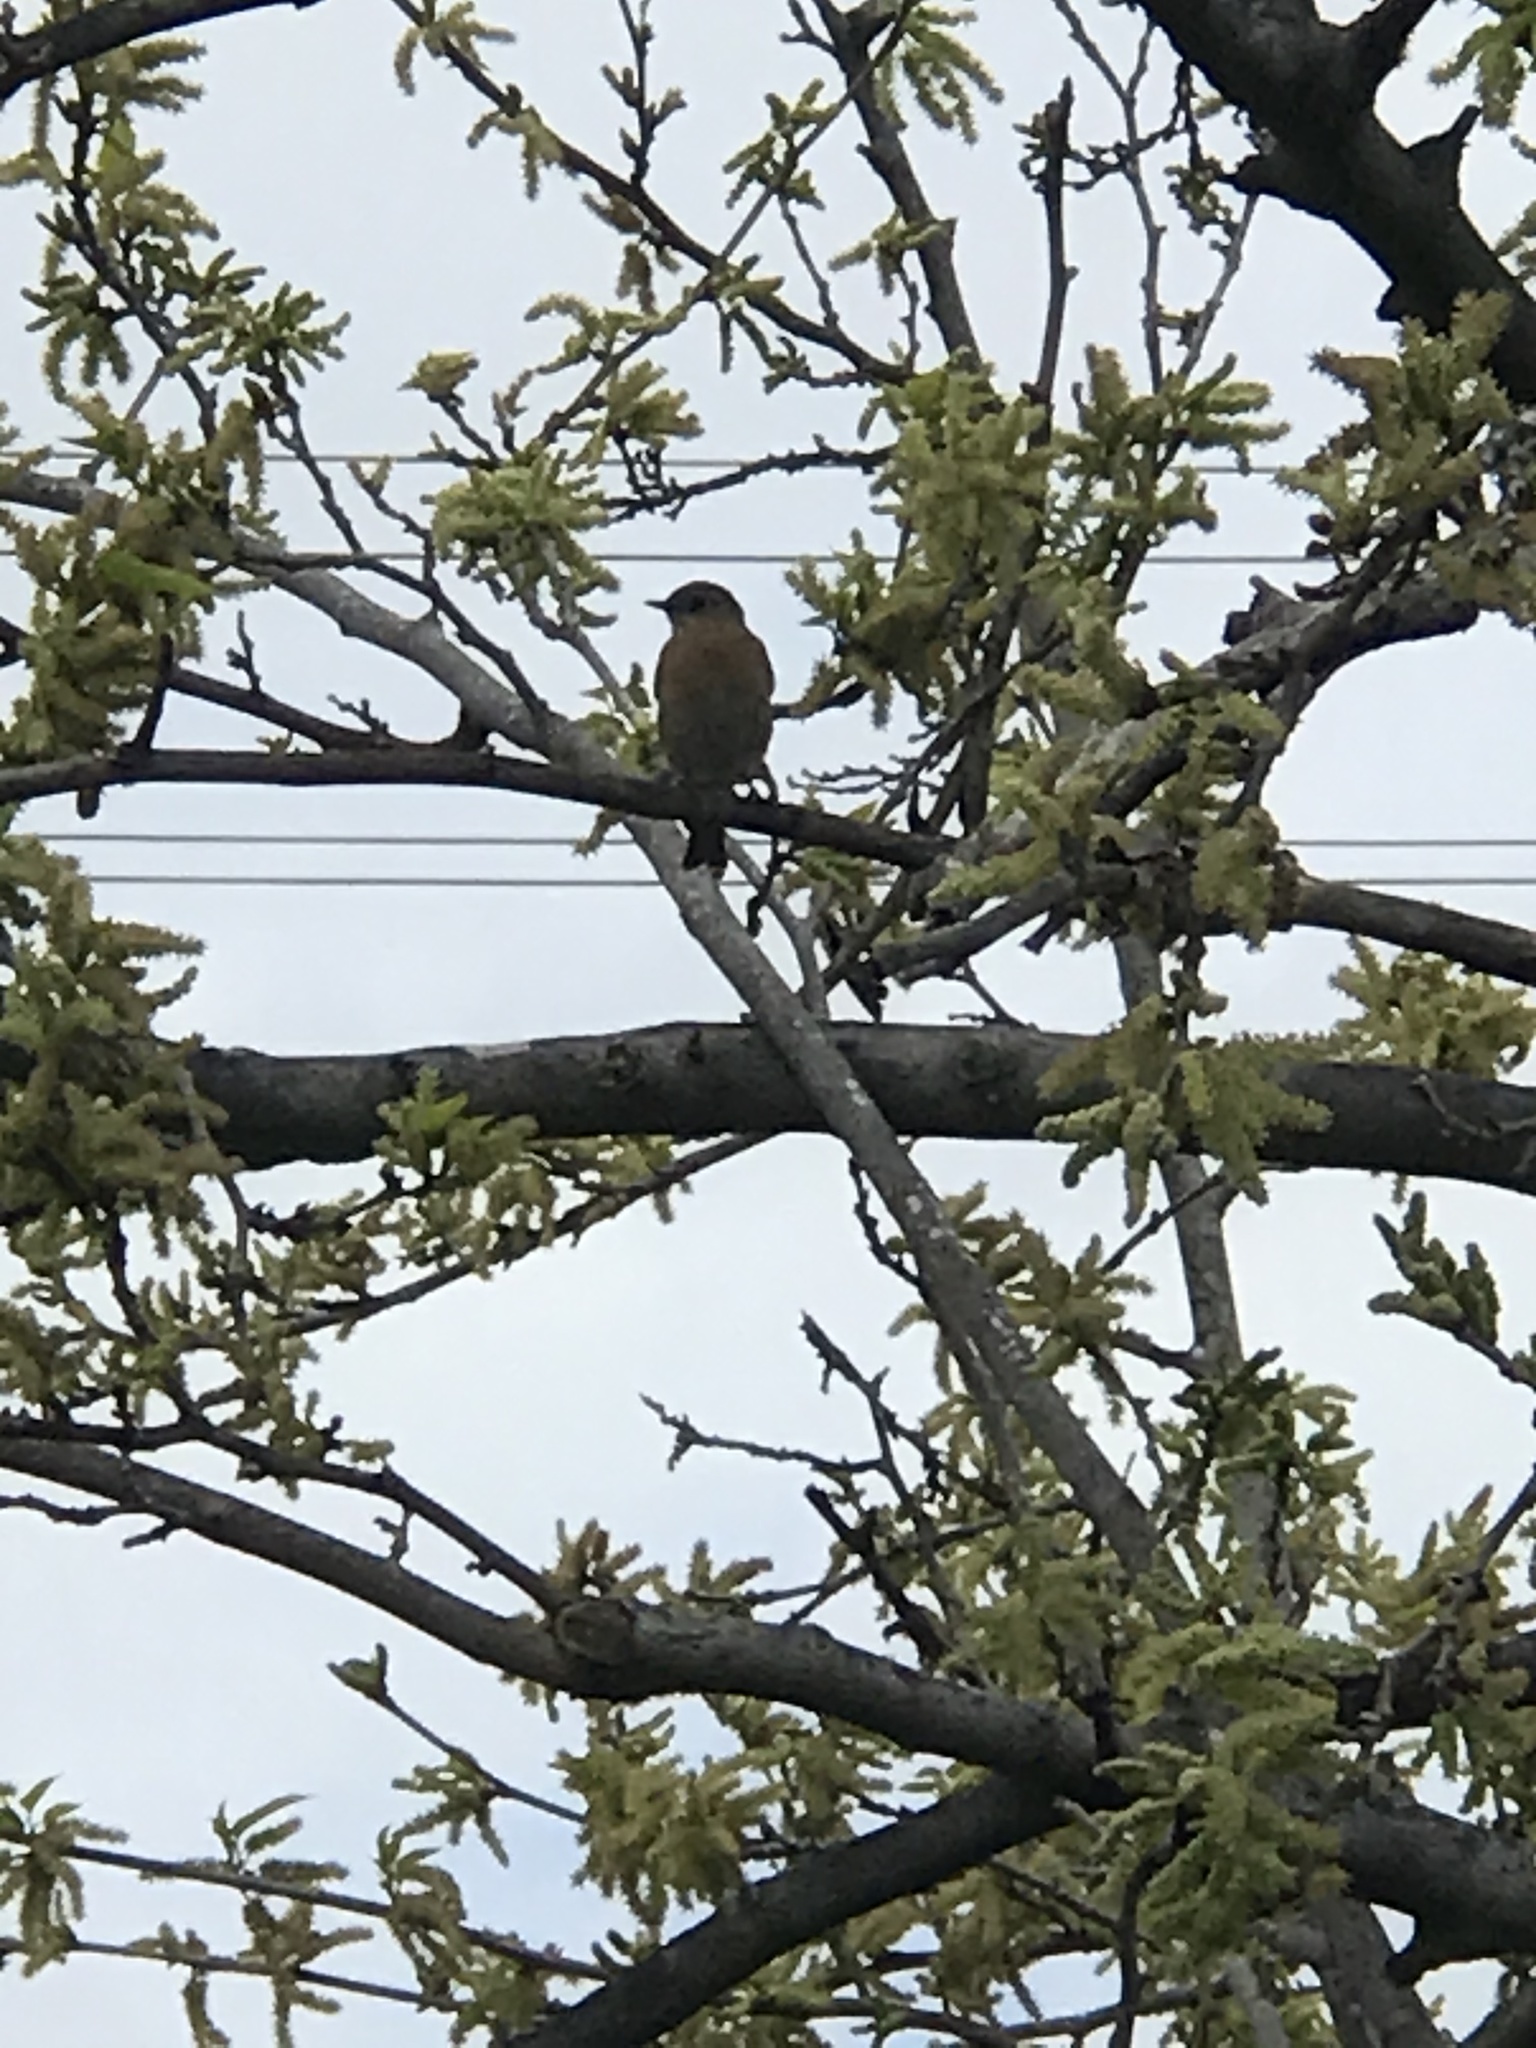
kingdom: Animalia
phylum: Chordata
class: Aves
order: Passeriformes
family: Turdidae
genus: Sialia
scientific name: Sialia mexicana
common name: Western bluebird
